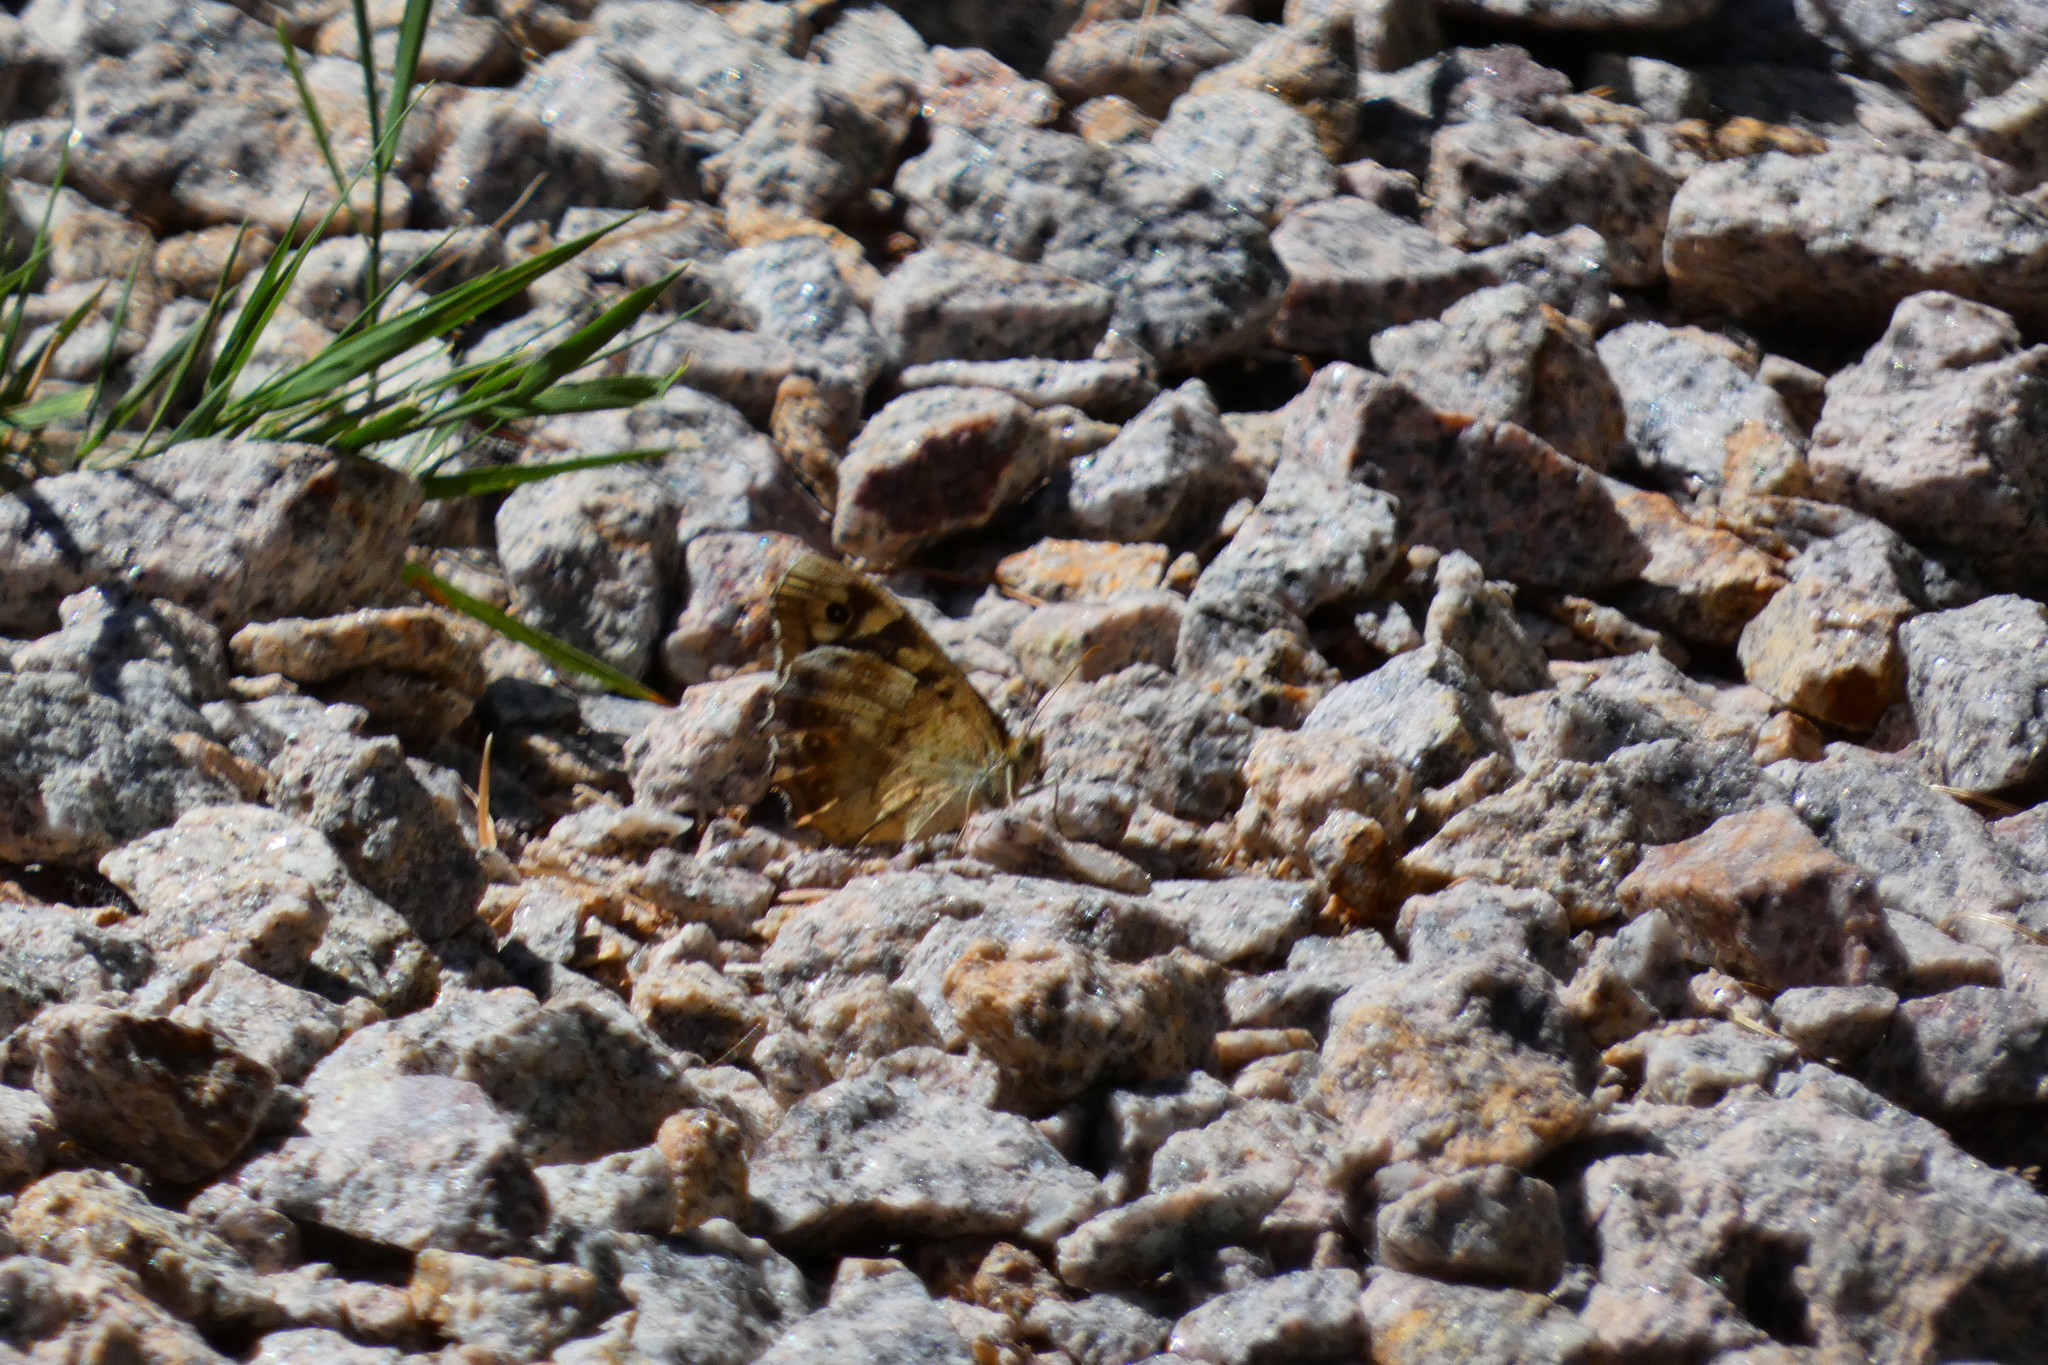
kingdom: Animalia
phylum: Arthropoda
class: Insecta
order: Lepidoptera
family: Nymphalidae
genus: Pararge
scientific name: Pararge aegeria
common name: Speckled wood
